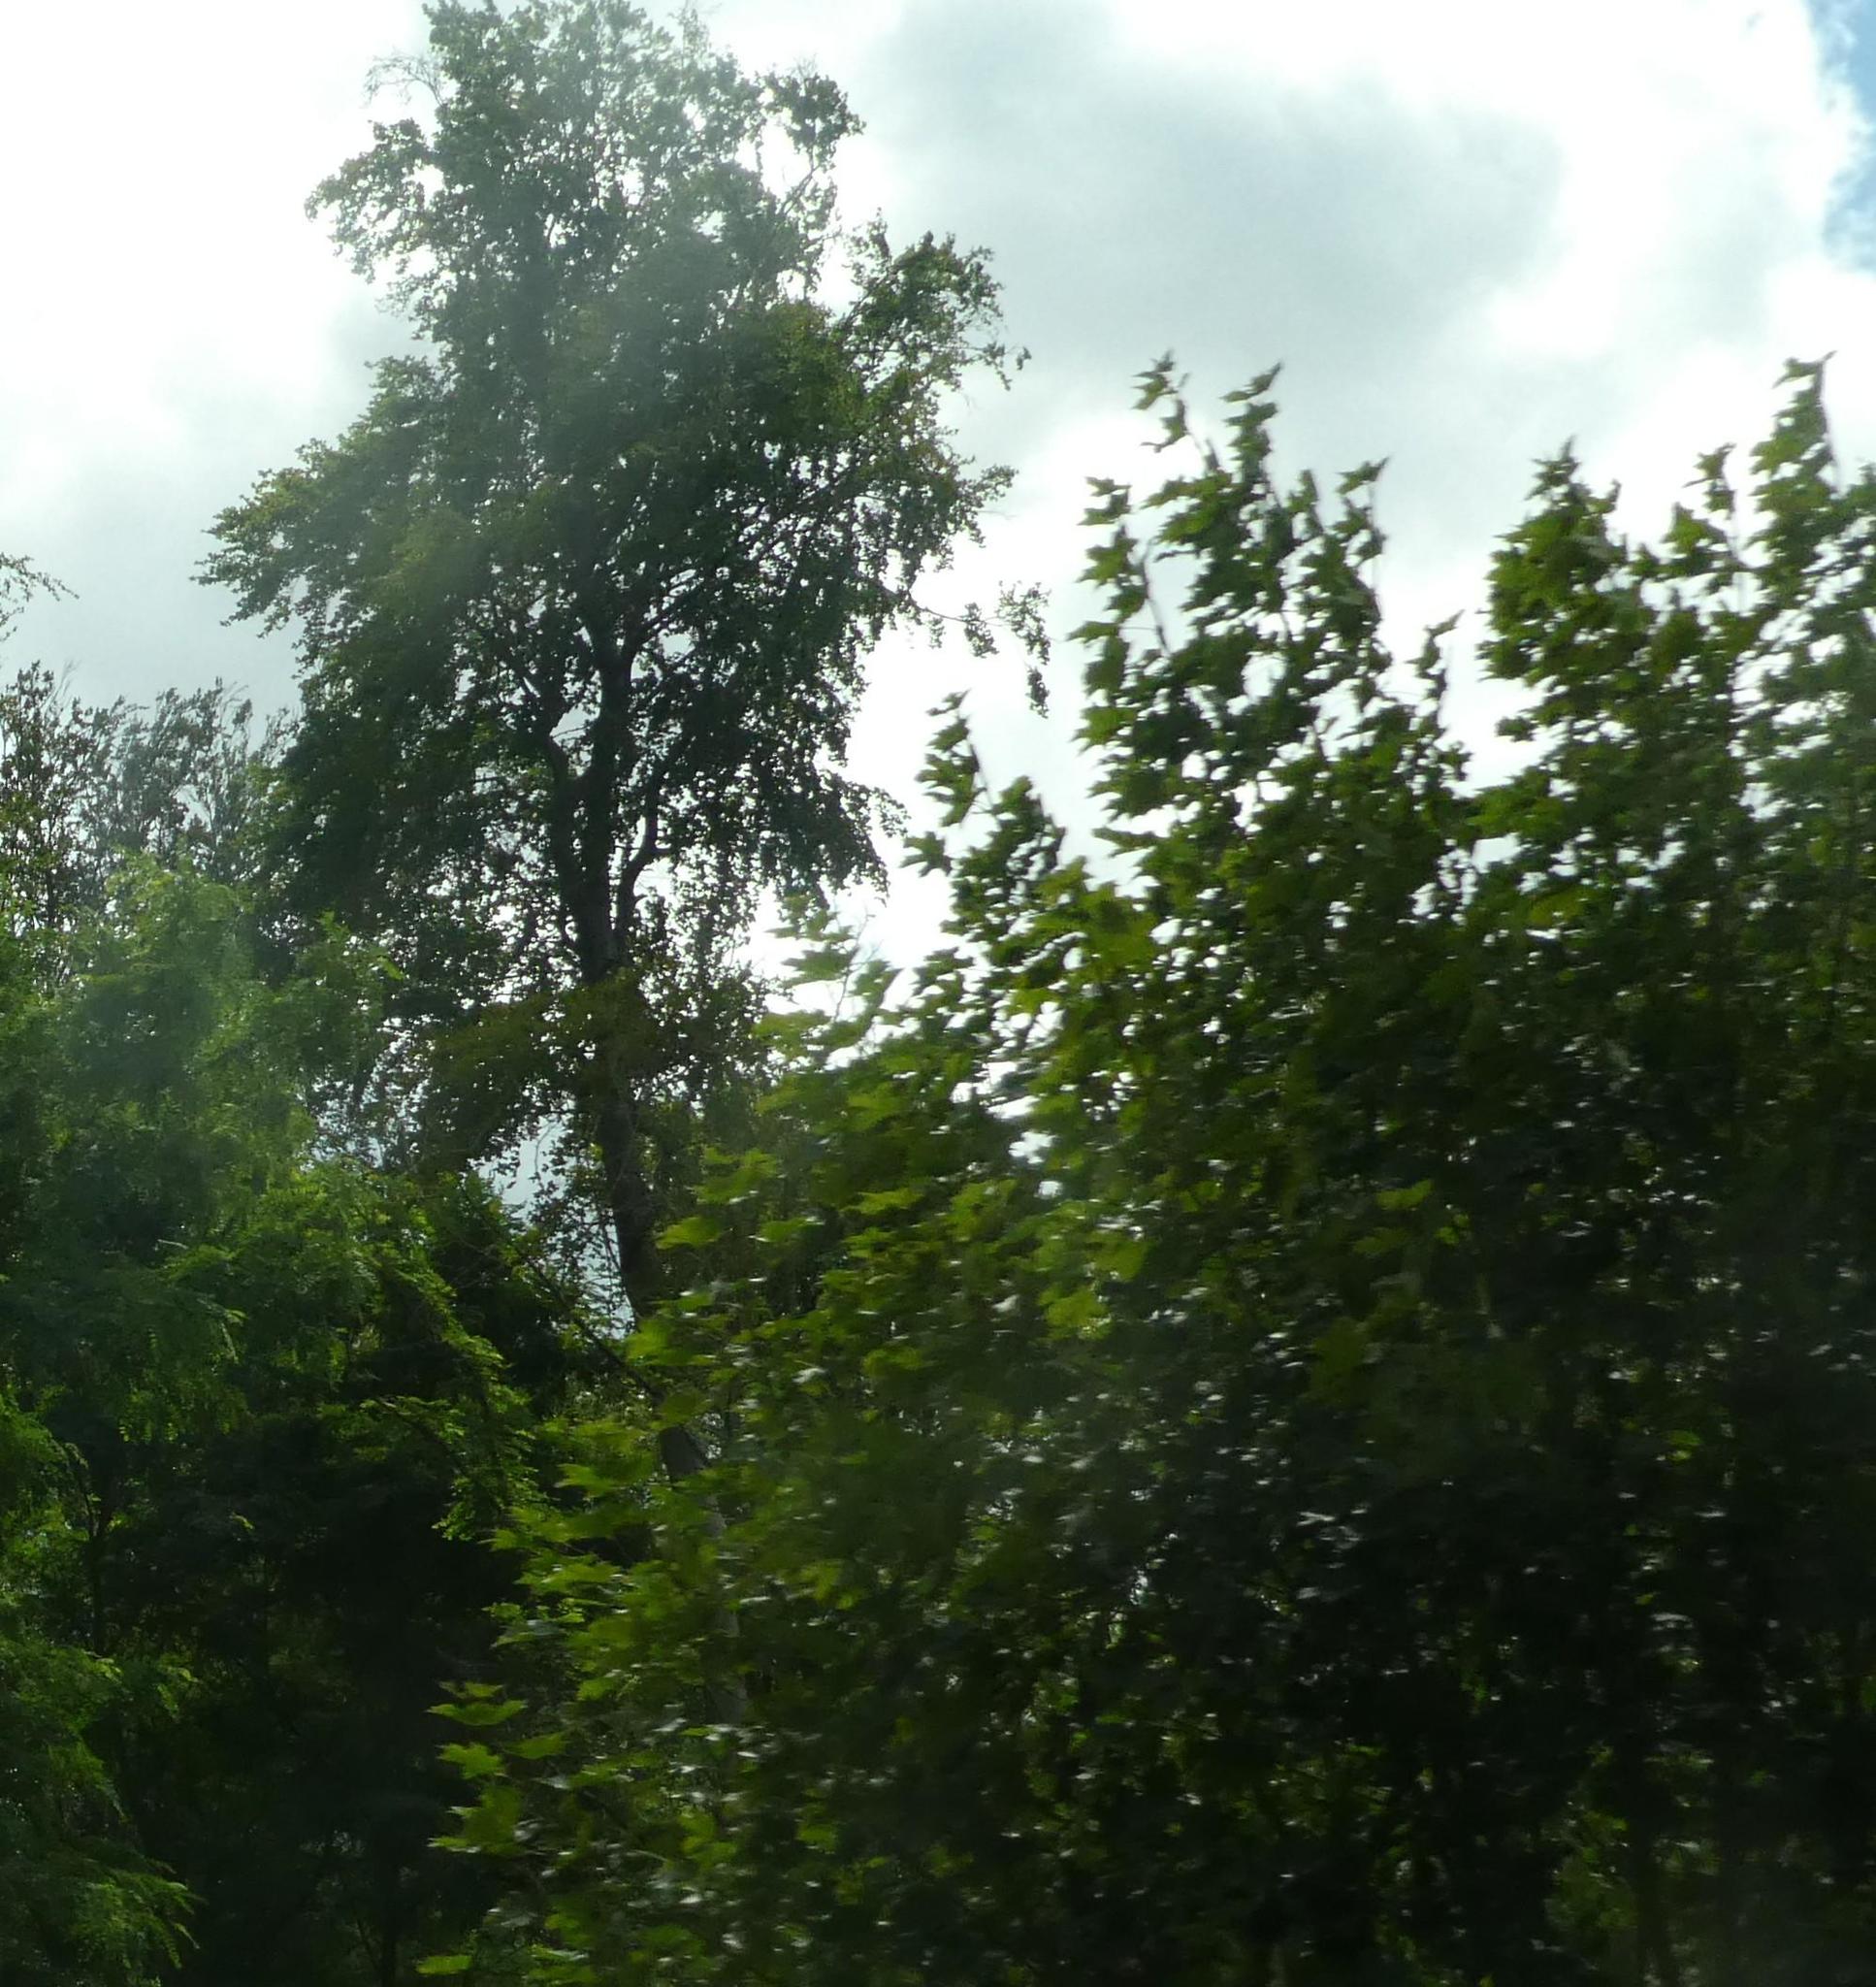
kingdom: Plantae
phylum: Tracheophyta
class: Magnoliopsida
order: Sapindales
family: Sapindaceae
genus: Acer
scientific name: Acer platanoides
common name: Norway maple
